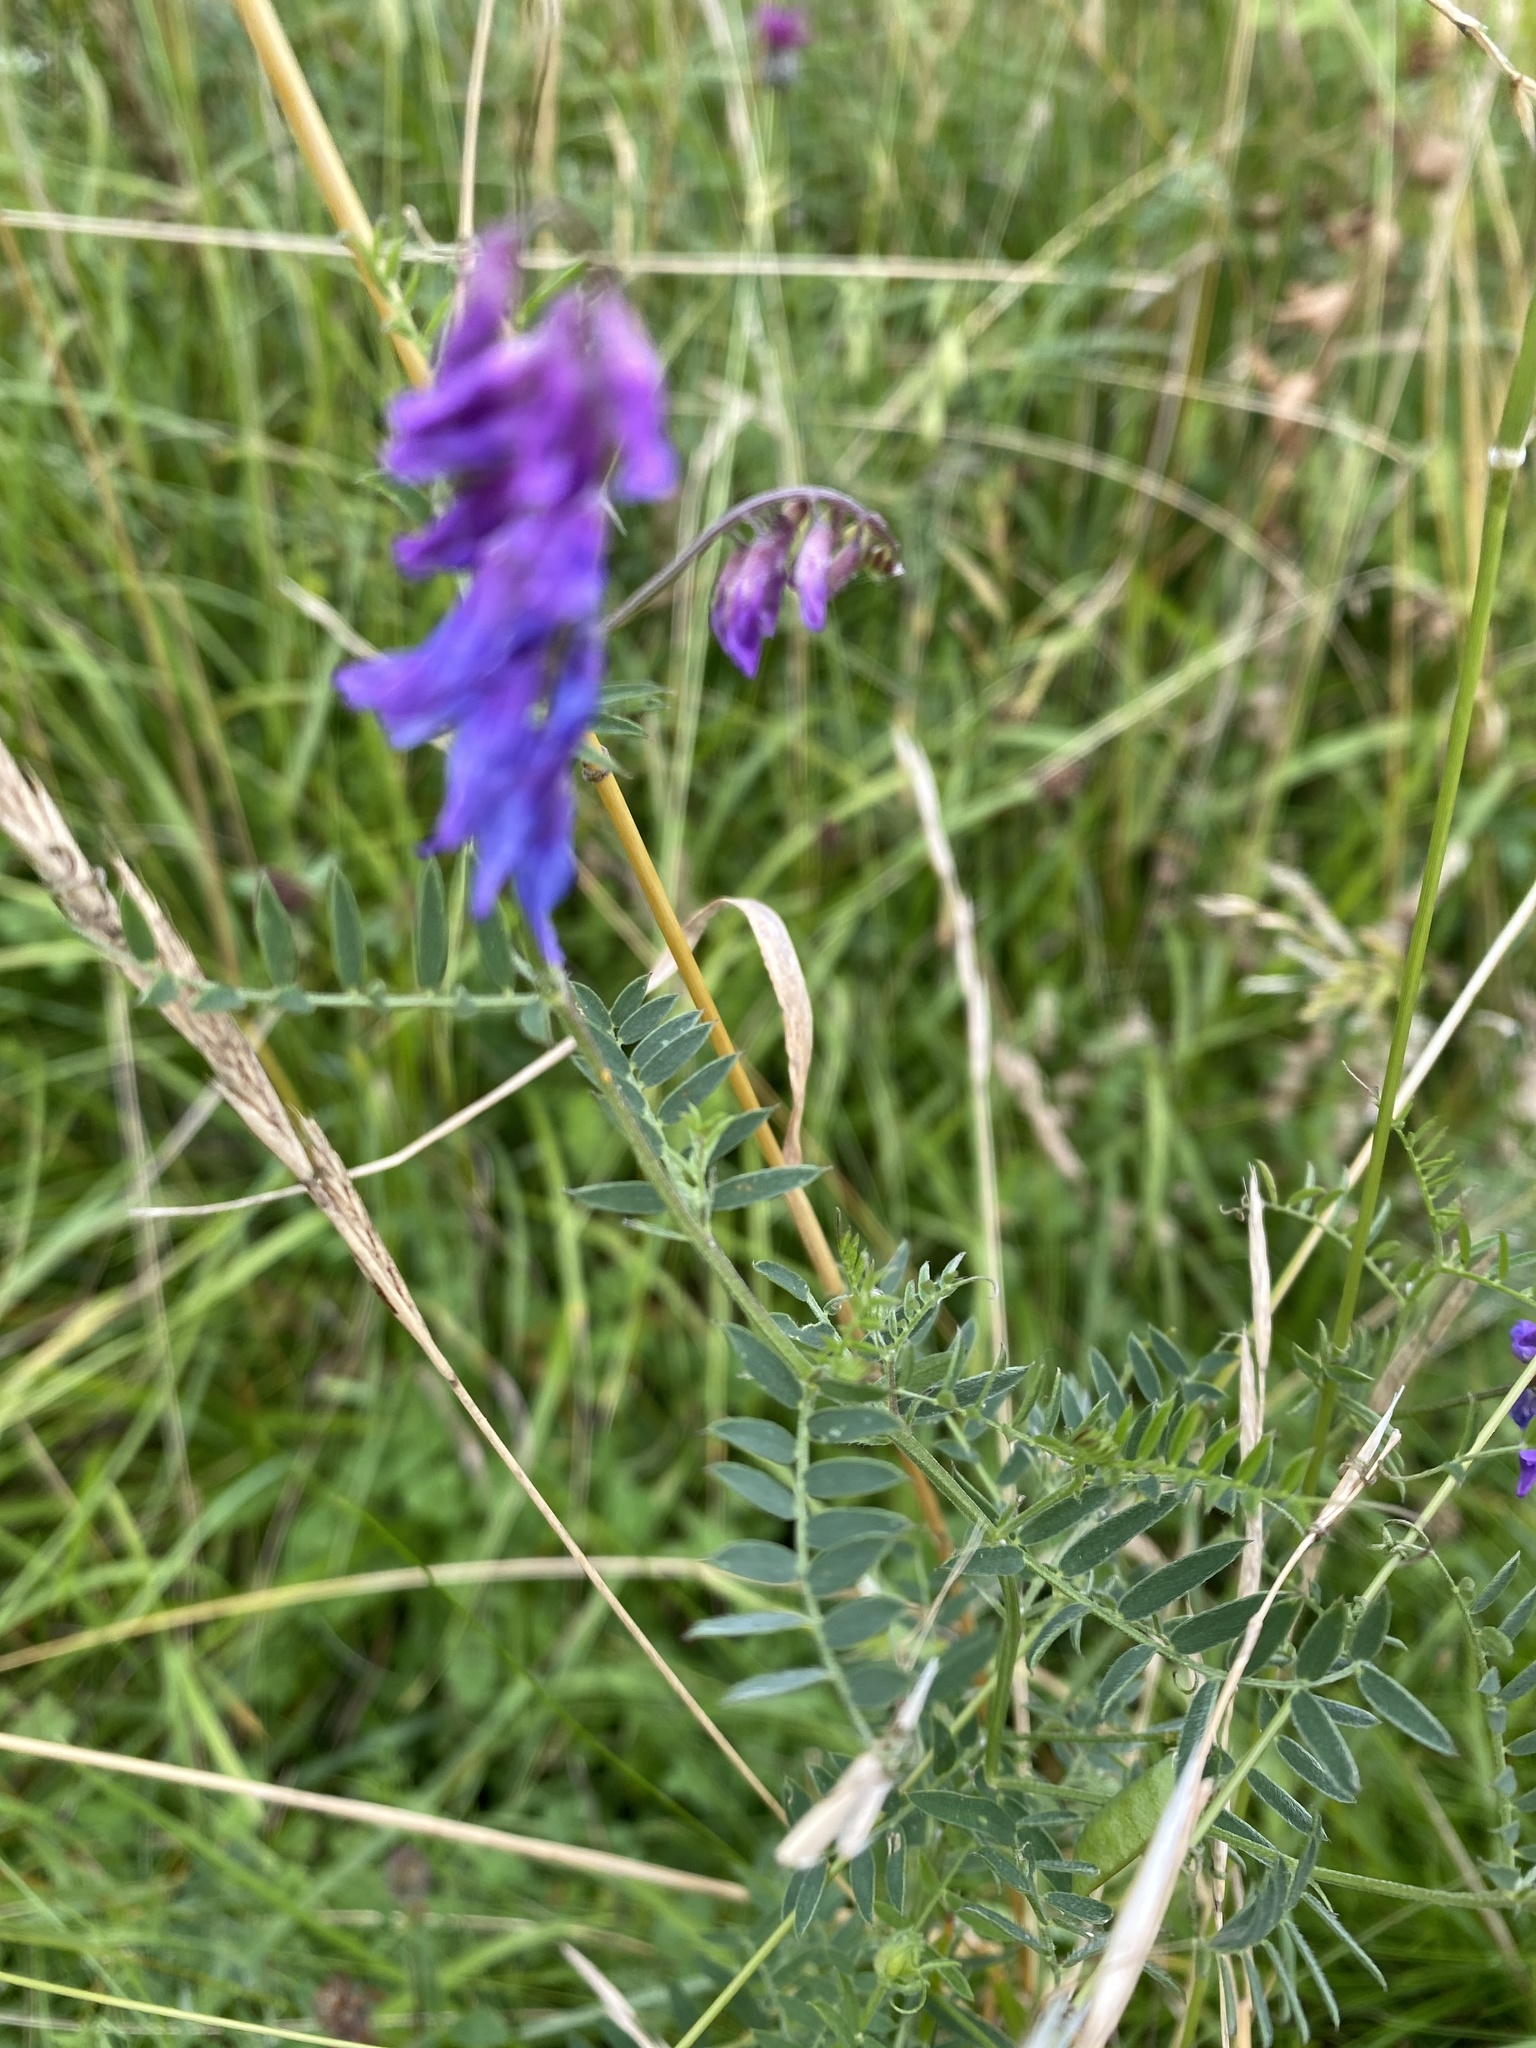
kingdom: Plantae
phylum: Tracheophyta
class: Magnoliopsida
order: Fabales
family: Fabaceae
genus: Vicia
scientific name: Vicia cracca
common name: Bird vetch
